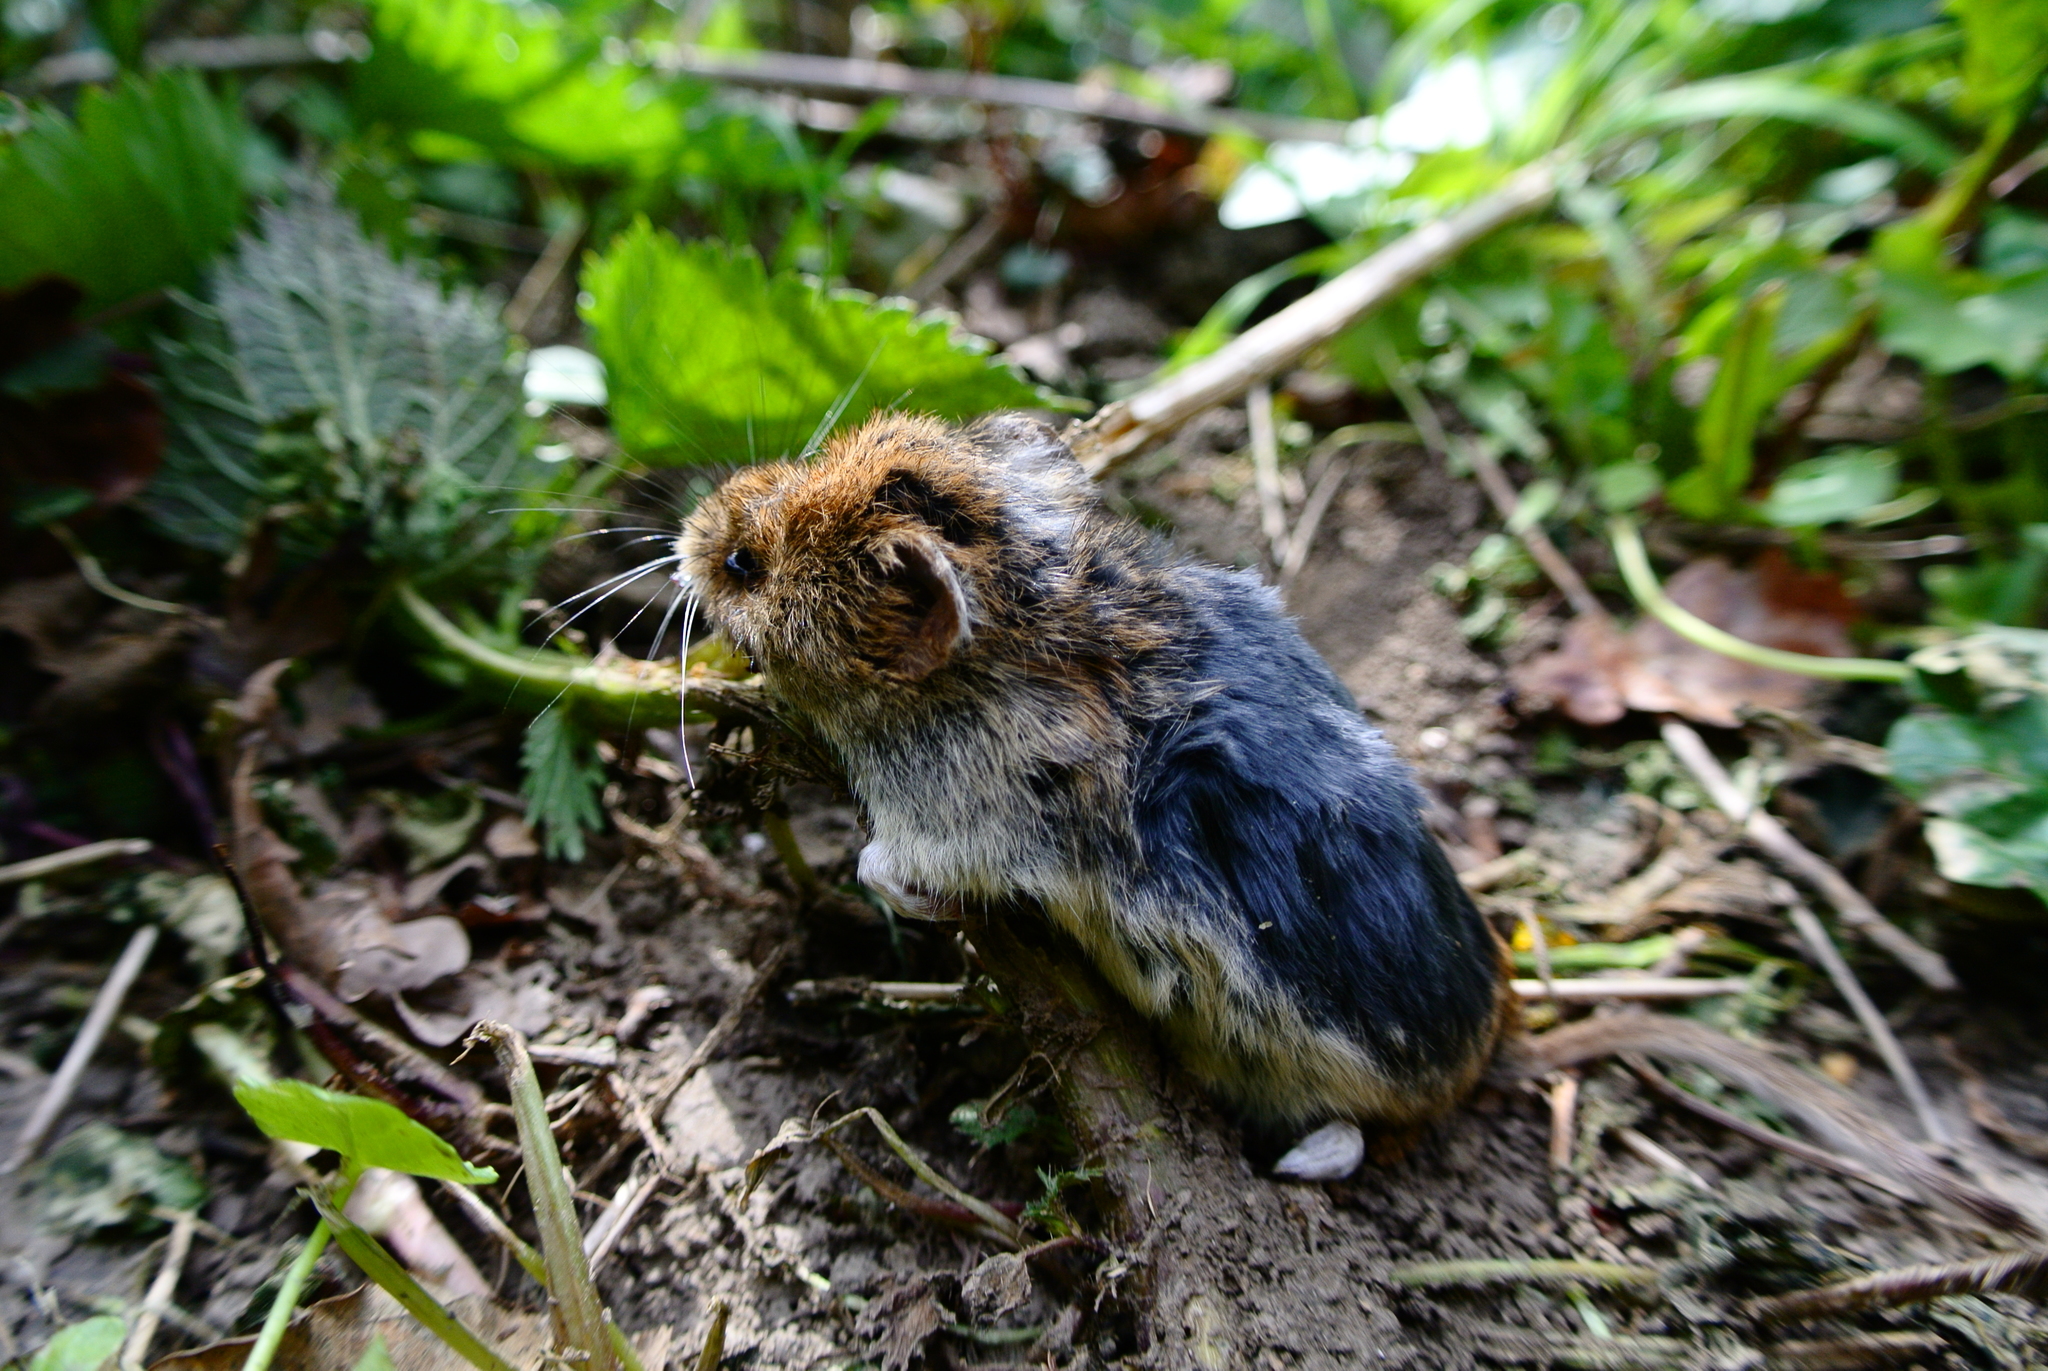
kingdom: Animalia
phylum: Chordata
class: Mammalia
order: Rodentia
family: Cricetidae
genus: Myodes
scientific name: Myodes glareolus
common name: Bank vole
